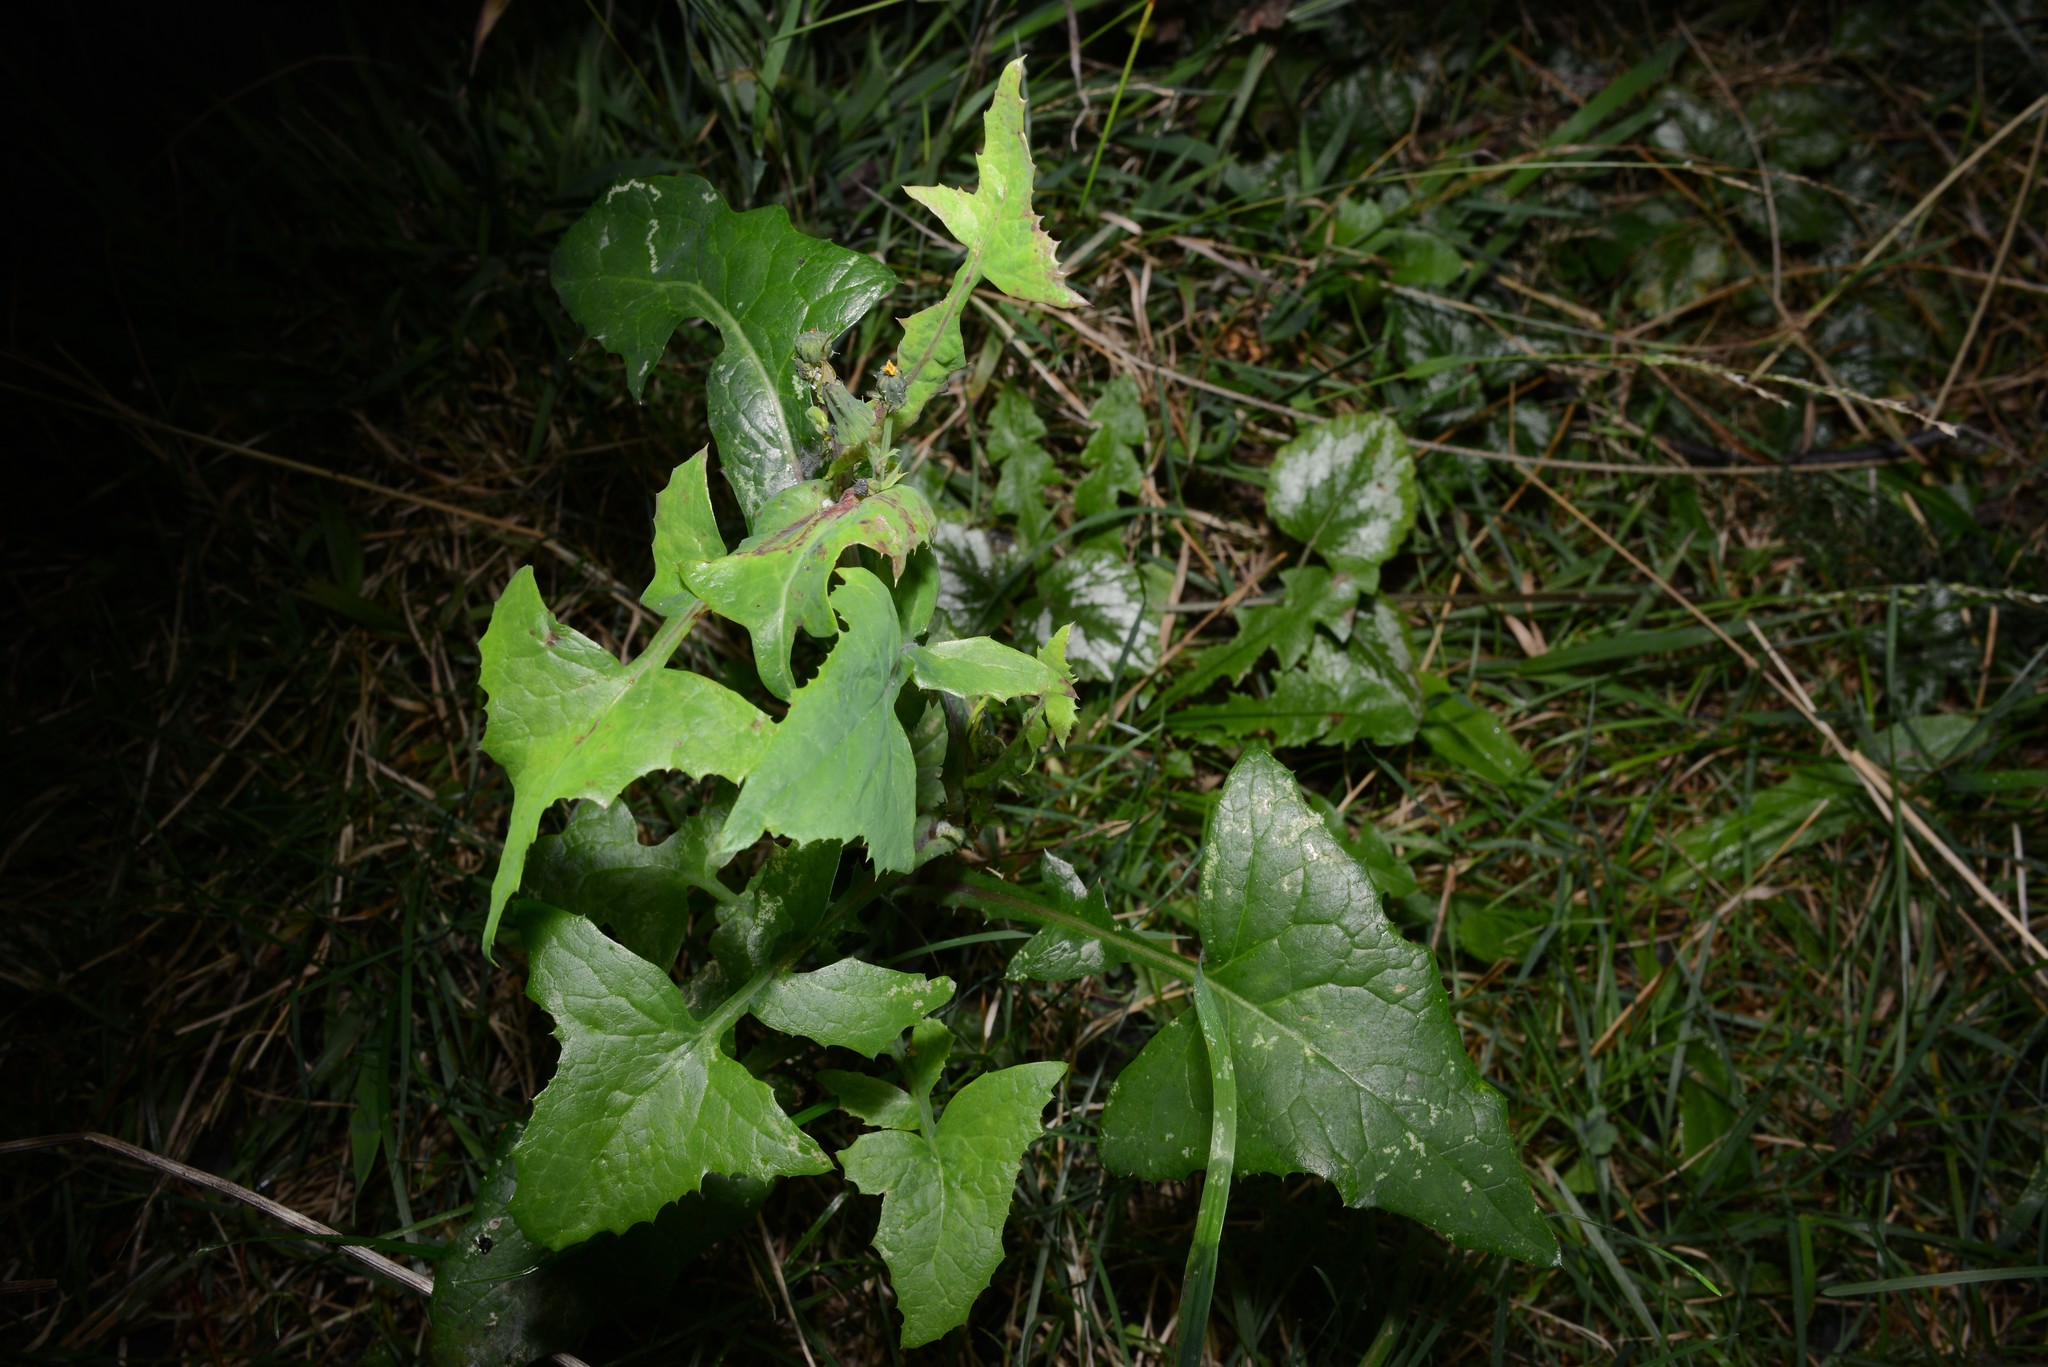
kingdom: Plantae
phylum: Tracheophyta
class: Magnoliopsida
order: Asterales
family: Asteraceae
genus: Sonchus
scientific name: Sonchus asper
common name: Prickly sow-thistle
